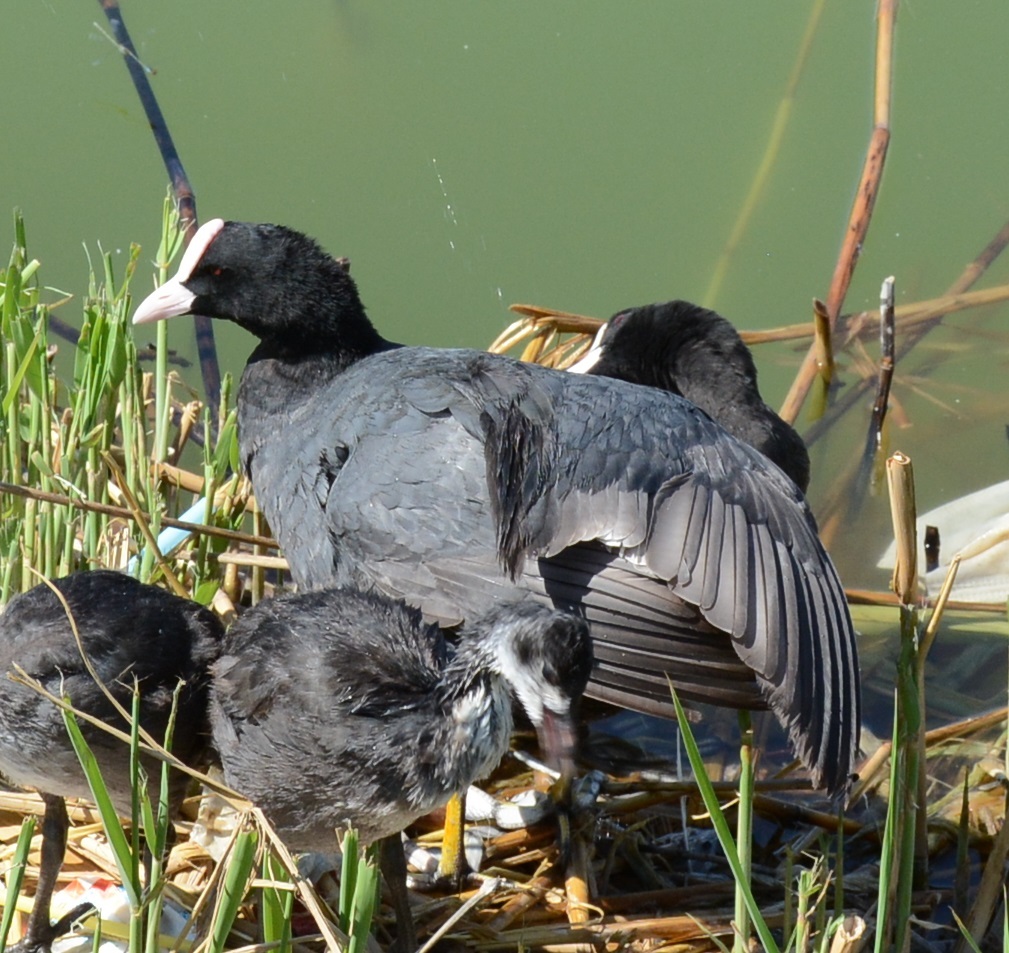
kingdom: Animalia
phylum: Chordata
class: Aves
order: Gruiformes
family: Rallidae
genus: Fulica
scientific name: Fulica atra
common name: Eurasian coot
